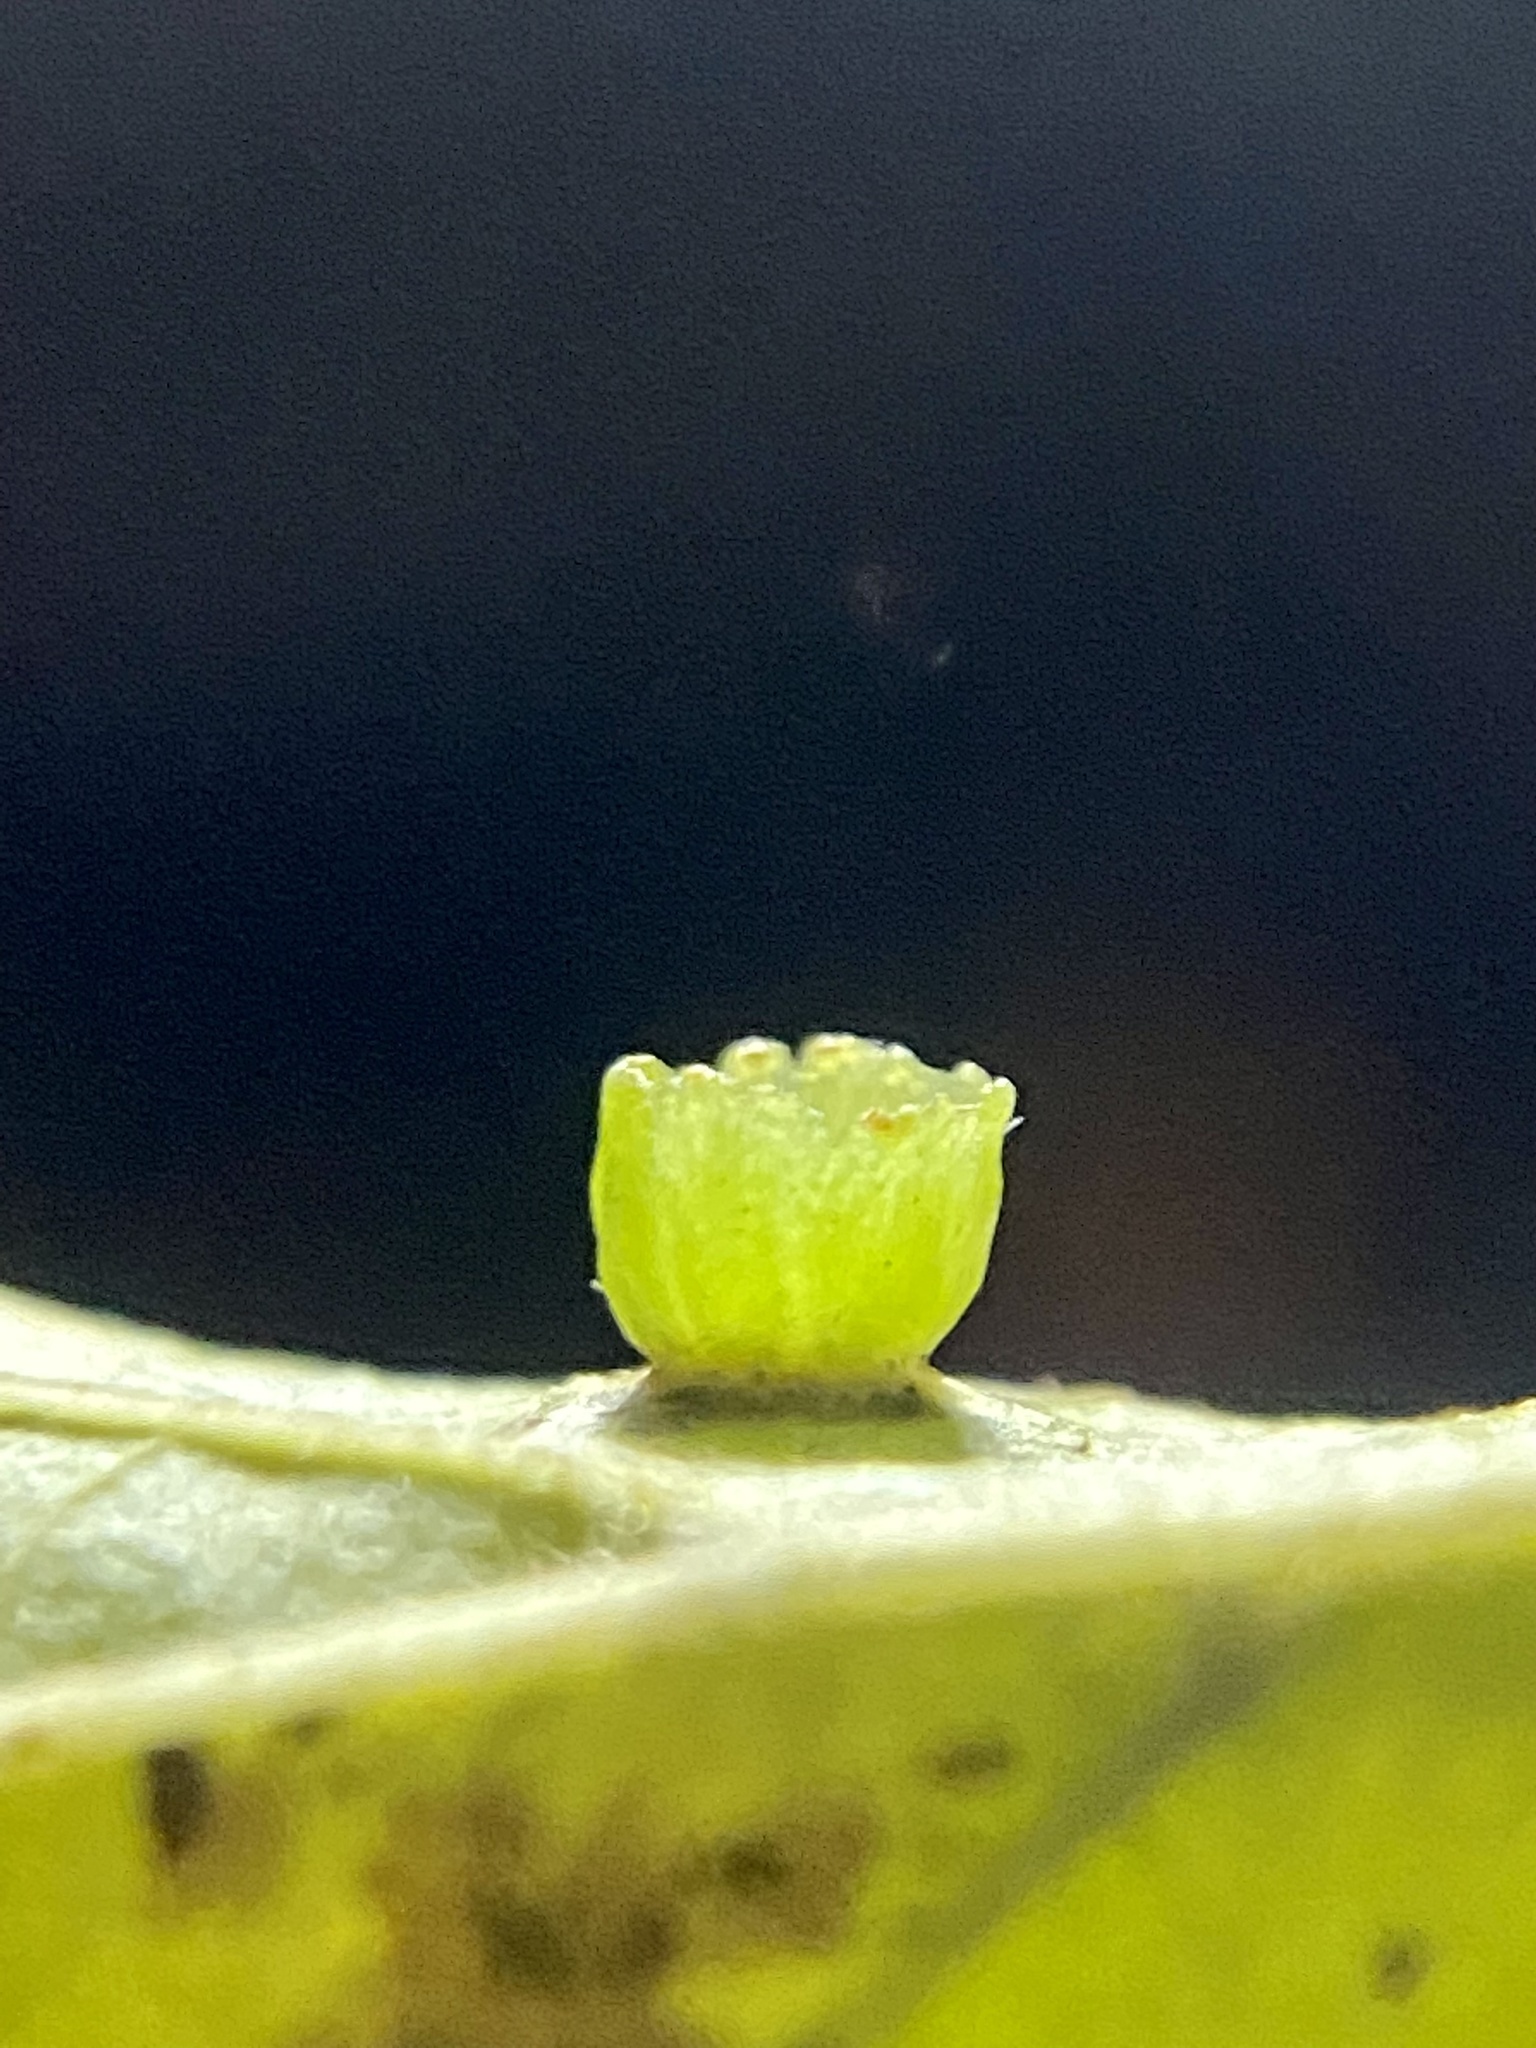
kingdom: Animalia
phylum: Arthropoda
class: Insecta
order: Hemiptera
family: Aphalaridae
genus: Pachypsylla
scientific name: Pachypsylla celtidisasterisca
